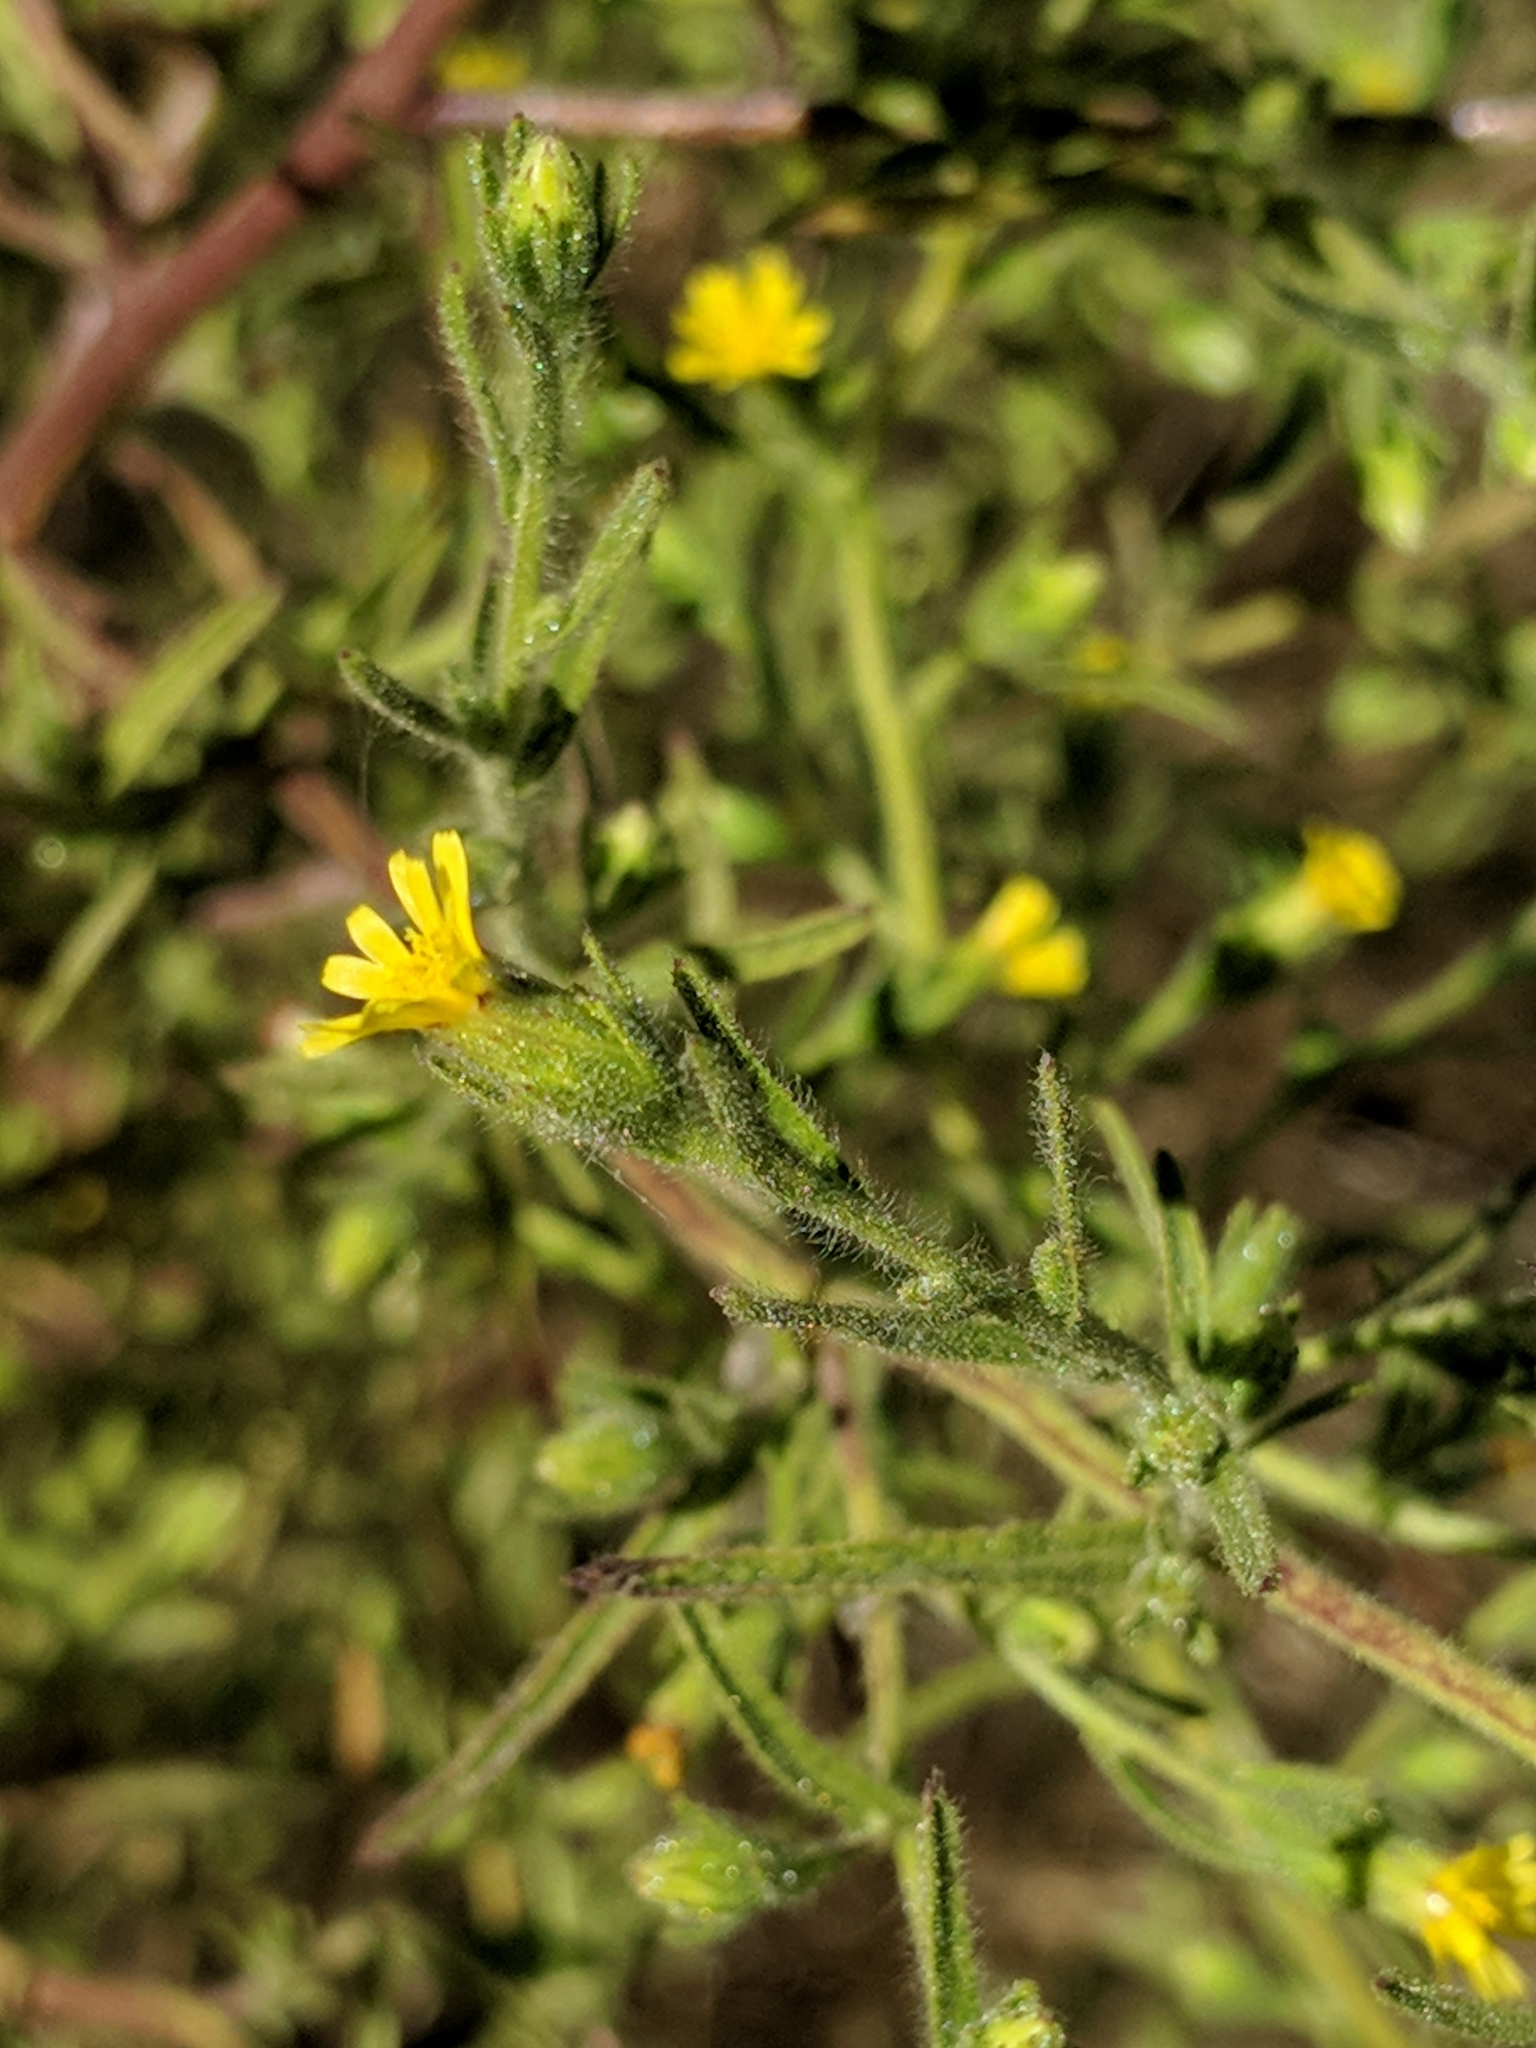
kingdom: Plantae
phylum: Tracheophyta
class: Magnoliopsida
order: Asterales
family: Asteraceae
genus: Dittrichia
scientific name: Dittrichia graveolens
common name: Stinking fleabane
